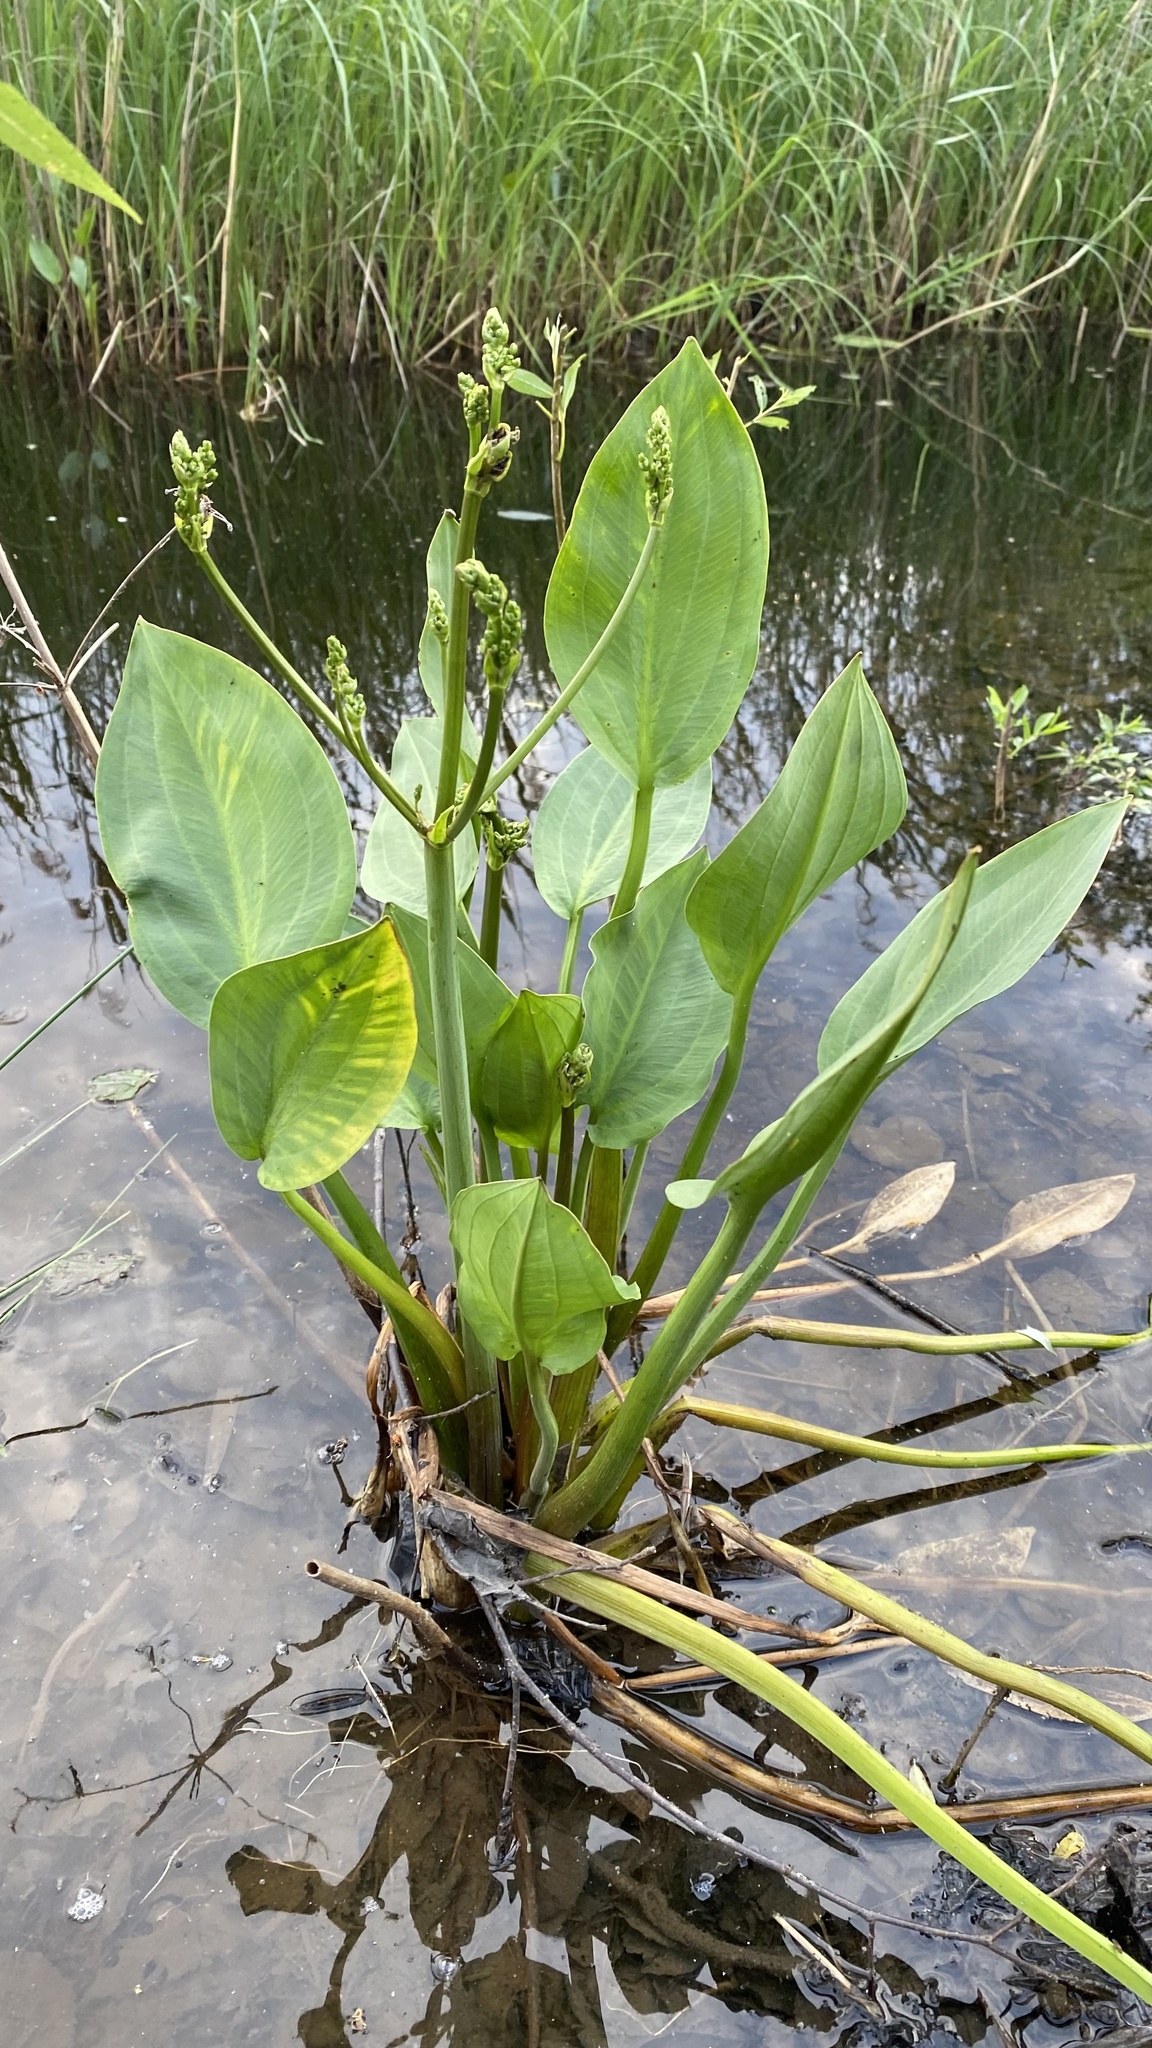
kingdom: Plantae
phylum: Tracheophyta
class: Liliopsida
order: Alismatales
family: Alismataceae
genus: Alisma
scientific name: Alisma plantago-aquatica
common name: Water-plantain
